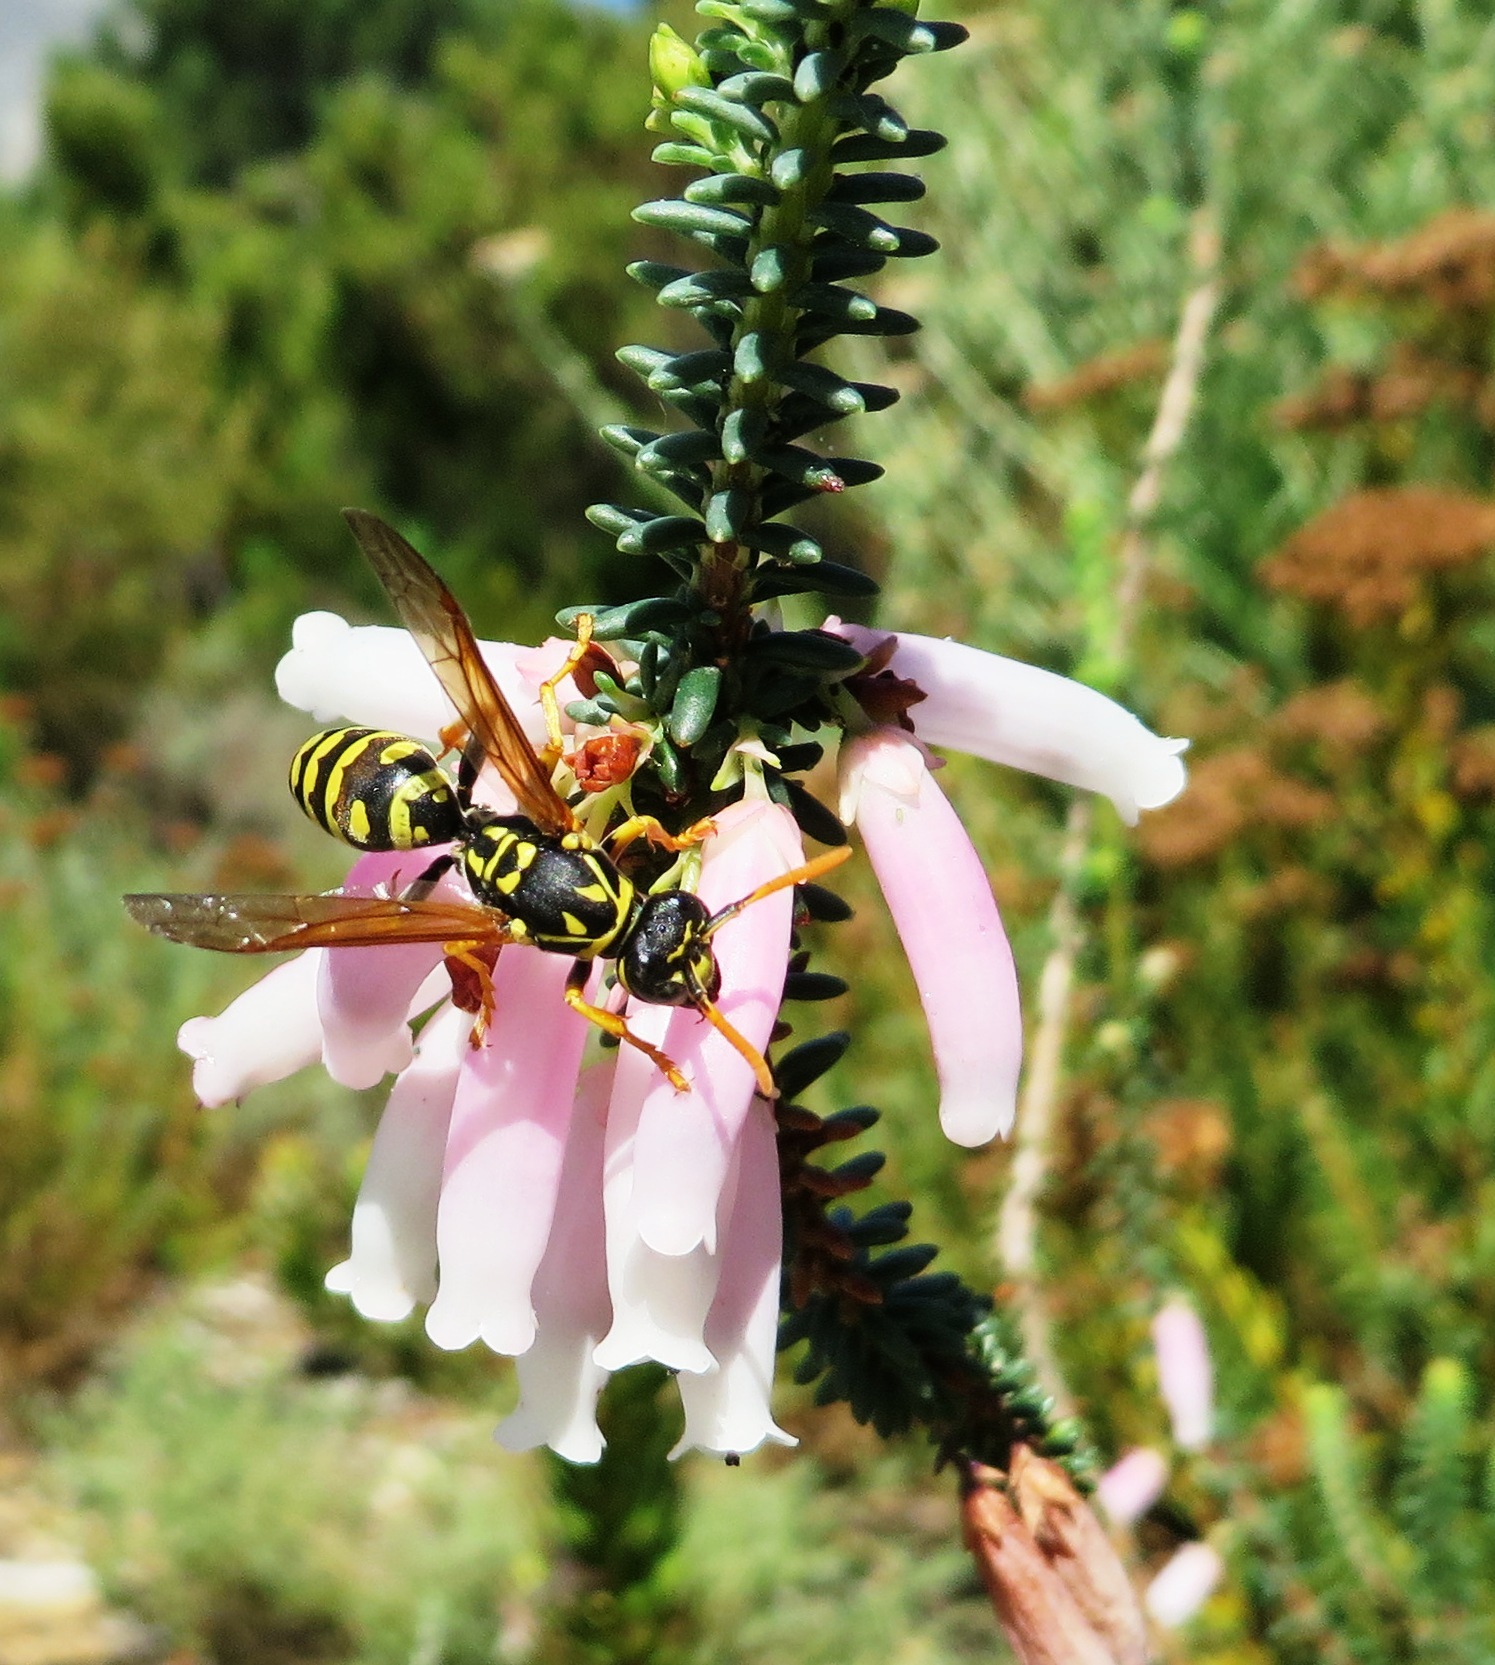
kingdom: Animalia
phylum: Arthropoda
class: Insecta
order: Hymenoptera
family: Eumenidae
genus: Polistes
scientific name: Polistes dominula
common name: Paper wasp
